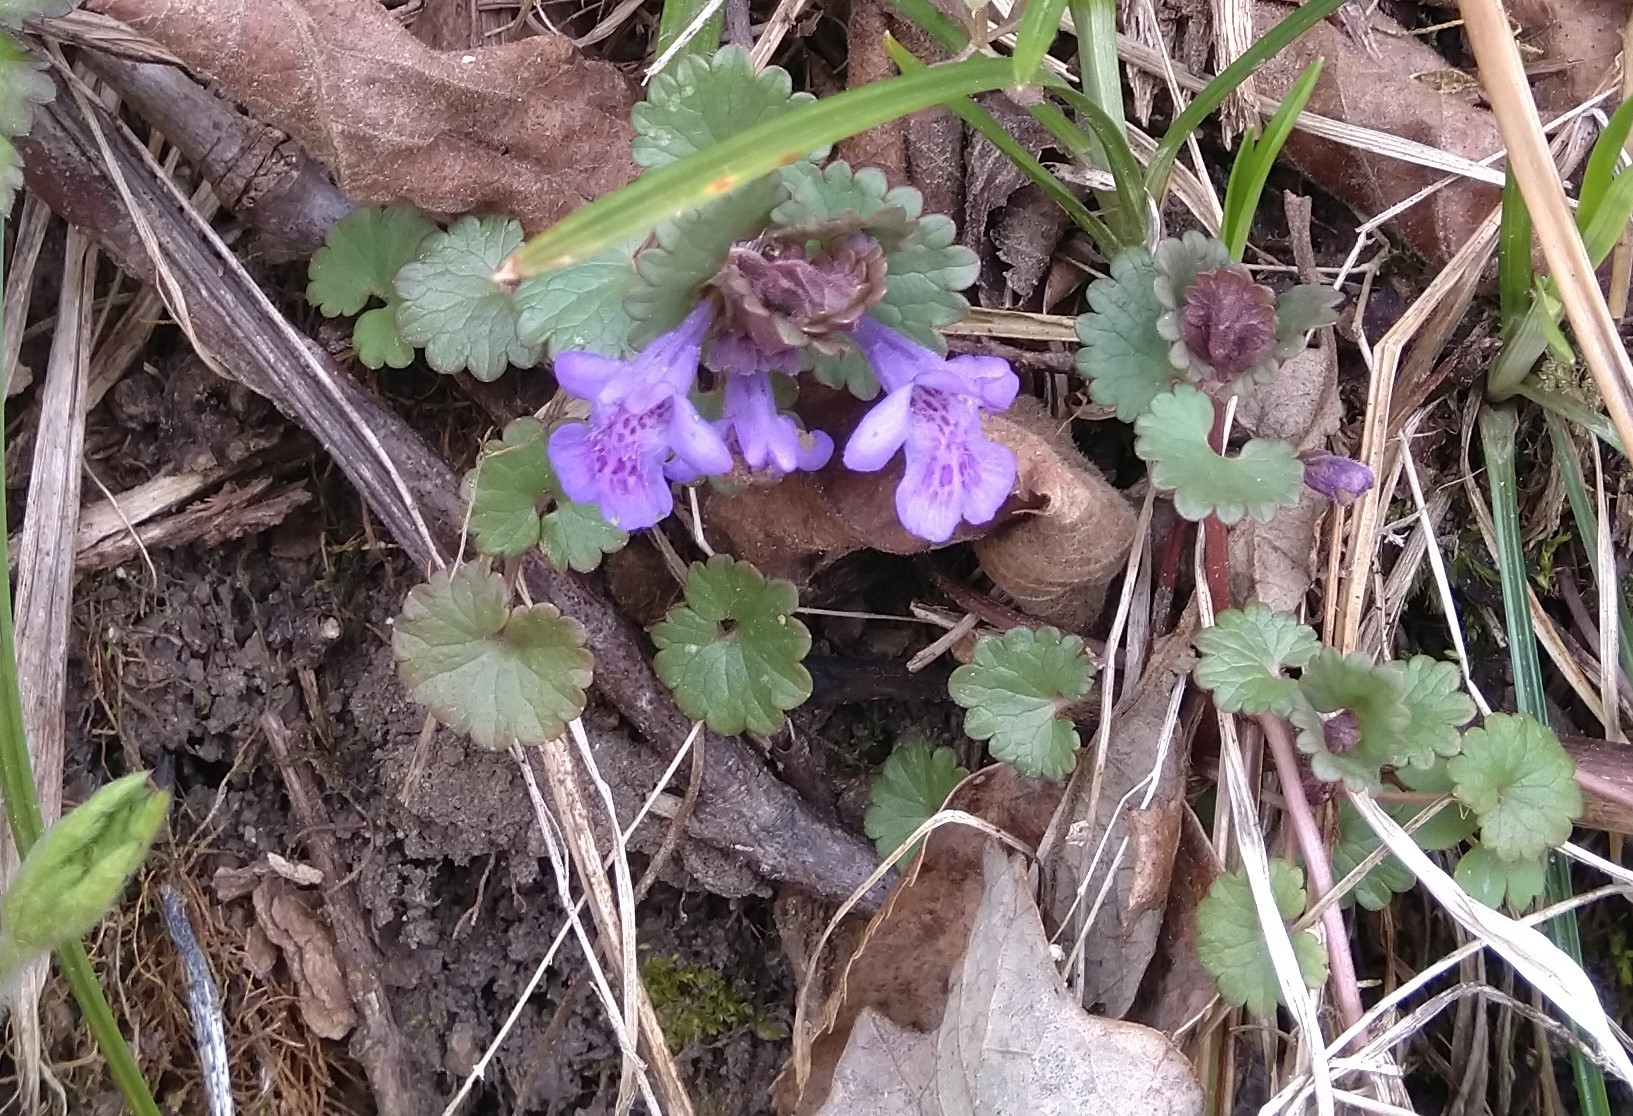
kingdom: Plantae
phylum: Tracheophyta
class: Magnoliopsida
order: Lamiales
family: Lamiaceae
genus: Glechoma
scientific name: Glechoma hederacea
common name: Ground ivy
